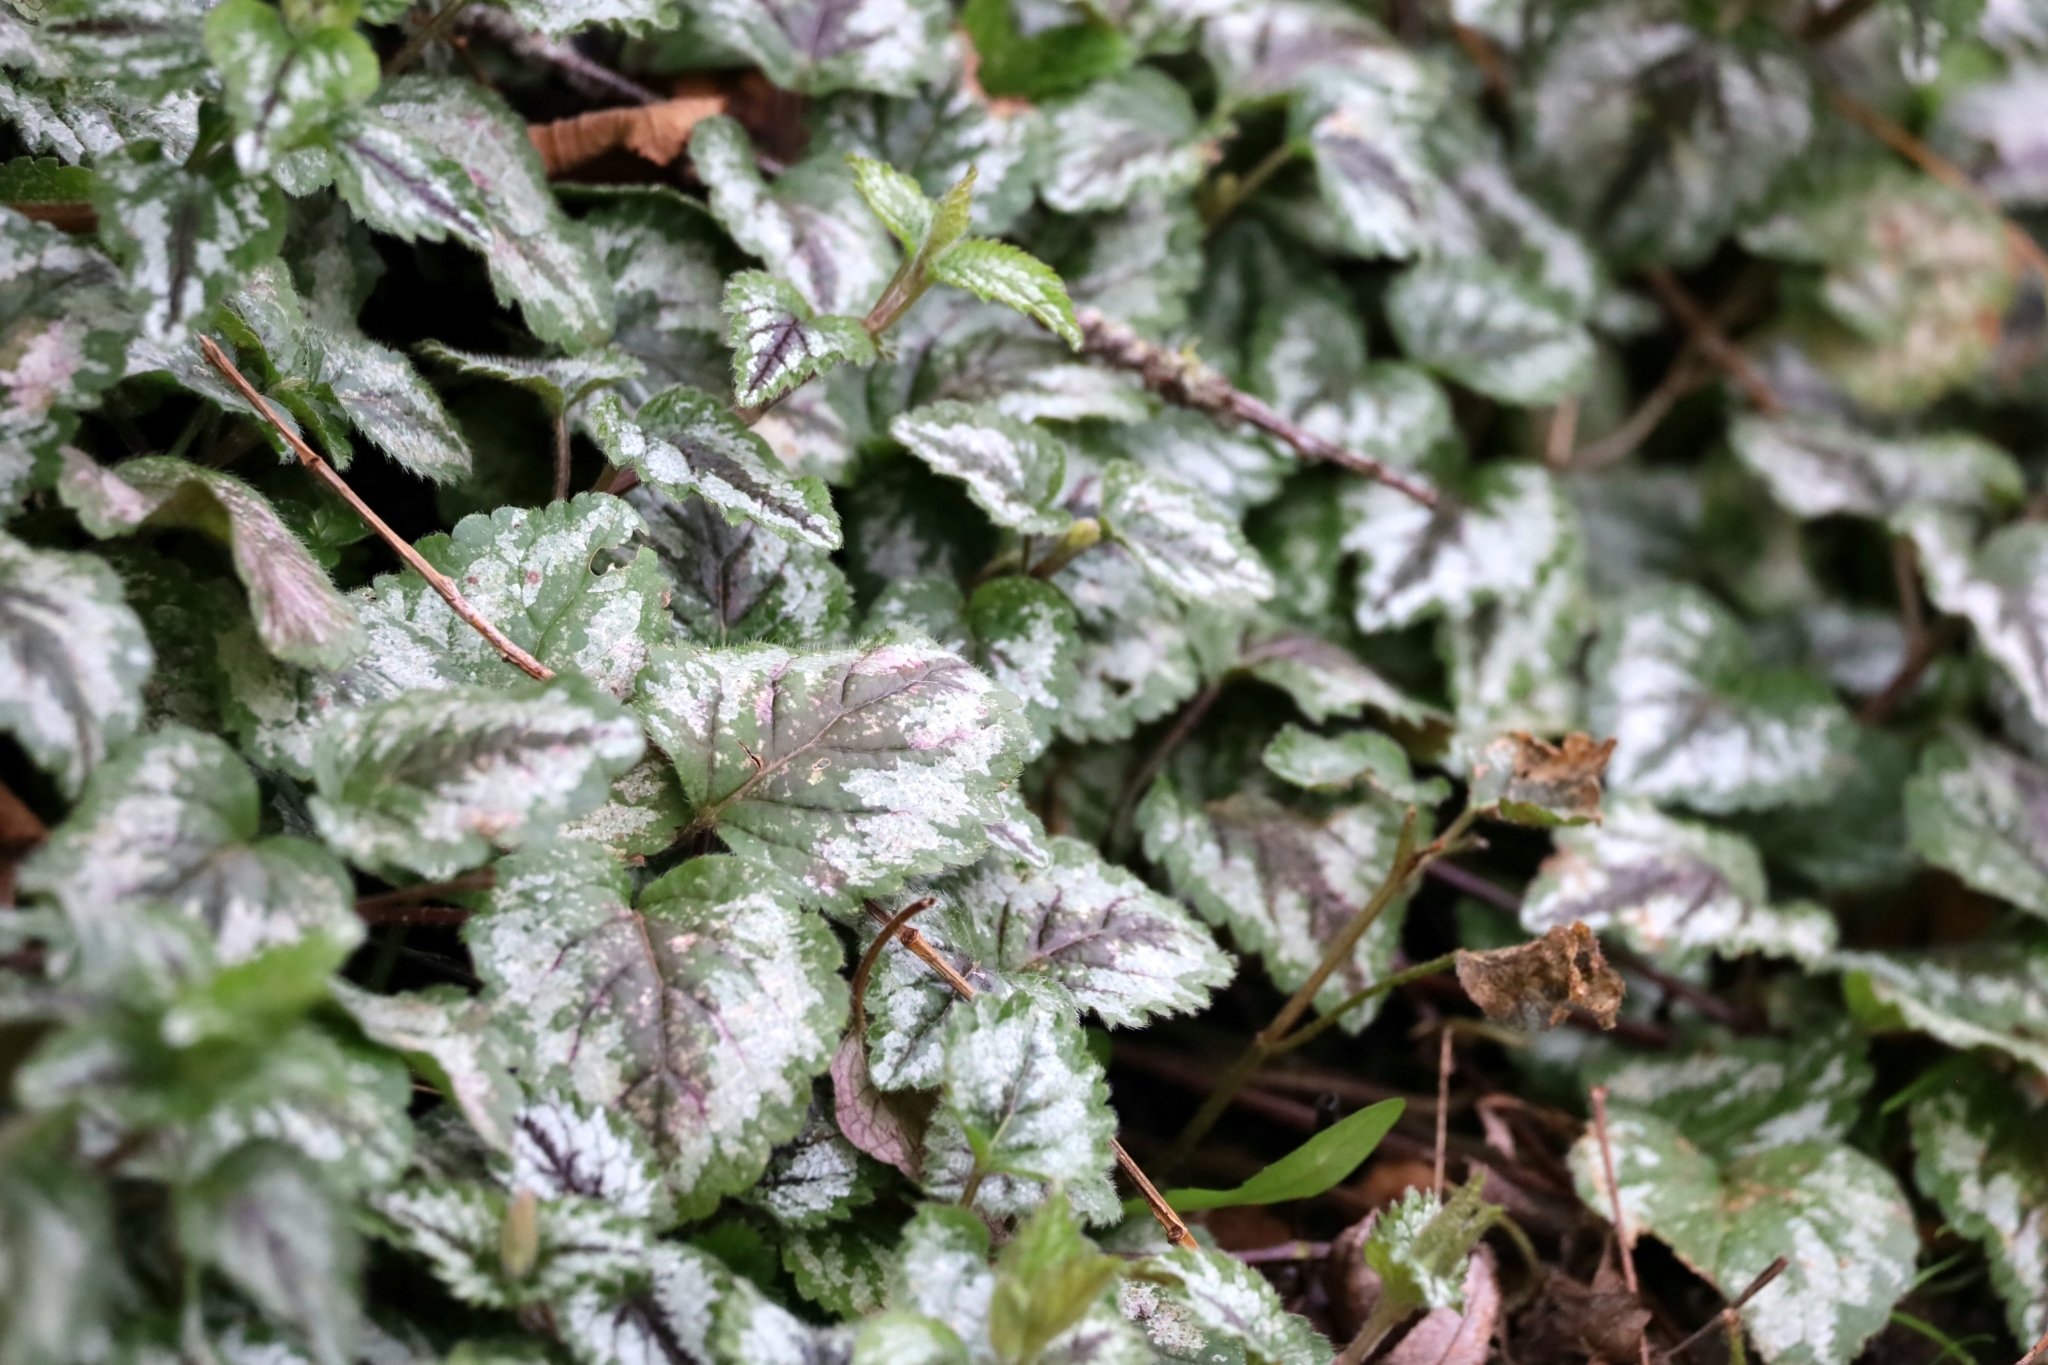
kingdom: Plantae
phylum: Tracheophyta
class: Magnoliopsida
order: Lamiales
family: Lamiaceae
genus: Lamium
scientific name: Lamium galeobdolon
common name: Yellow archangel
